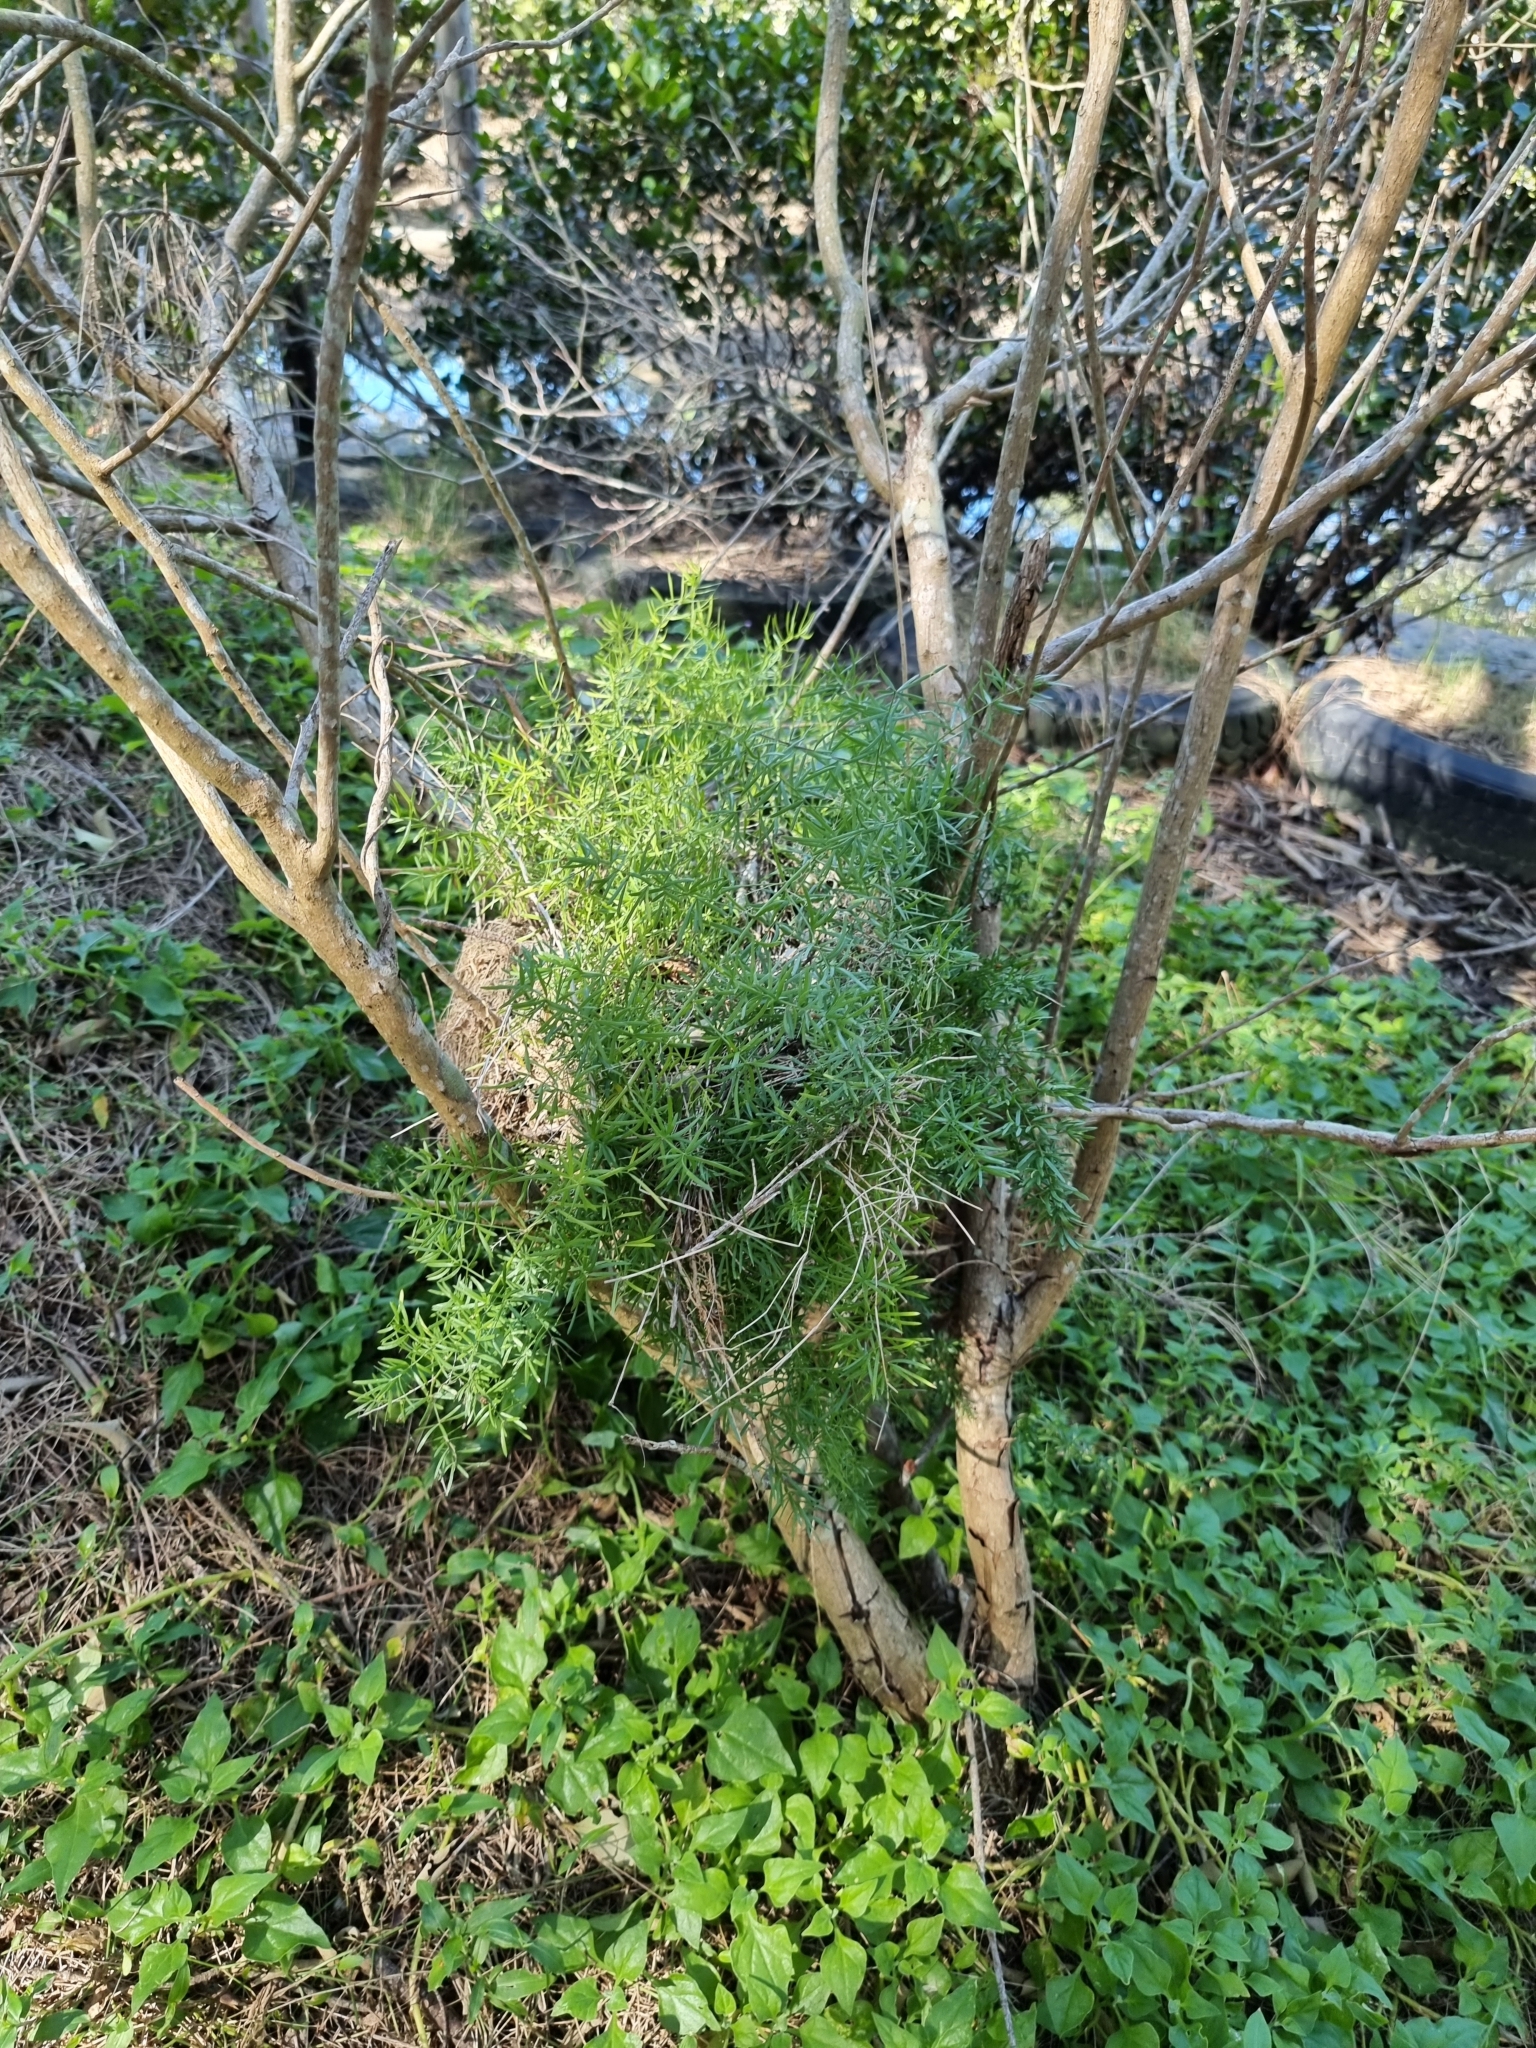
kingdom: Plantae
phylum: Tracheophyta
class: Liliopsida
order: Asparagales
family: Asparagaceae
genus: Asparagus
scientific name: Asparagus aethiopicus
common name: Sprenger's asparagus fern
